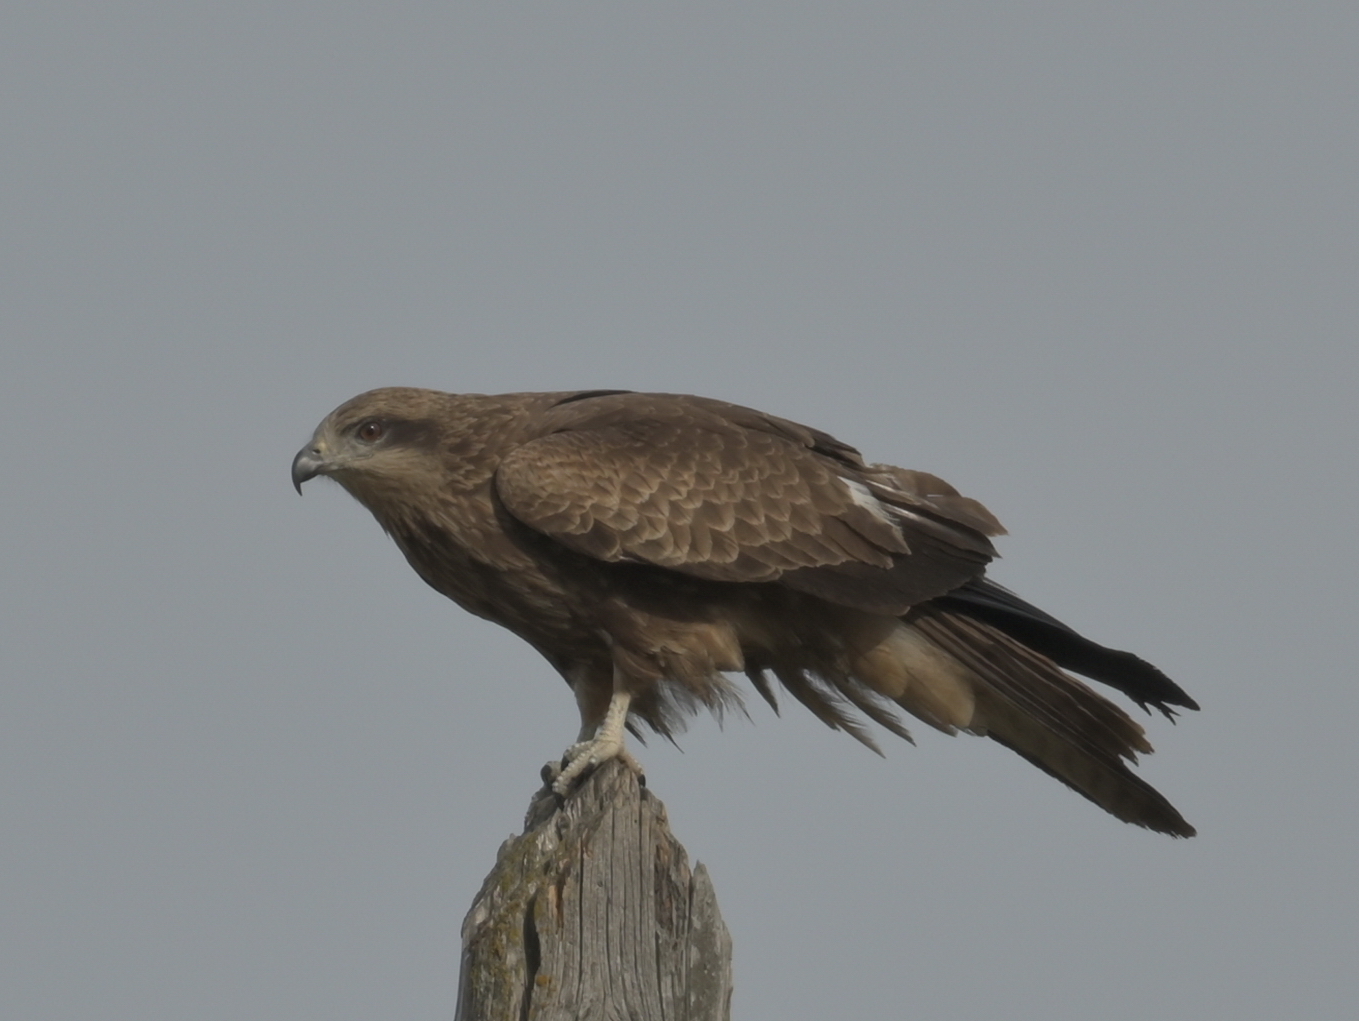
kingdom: Animalia
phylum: Chordata
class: Aves
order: Accipitriformes
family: Accipitridae
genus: Milvus
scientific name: Milvus migrans
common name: Black kite
